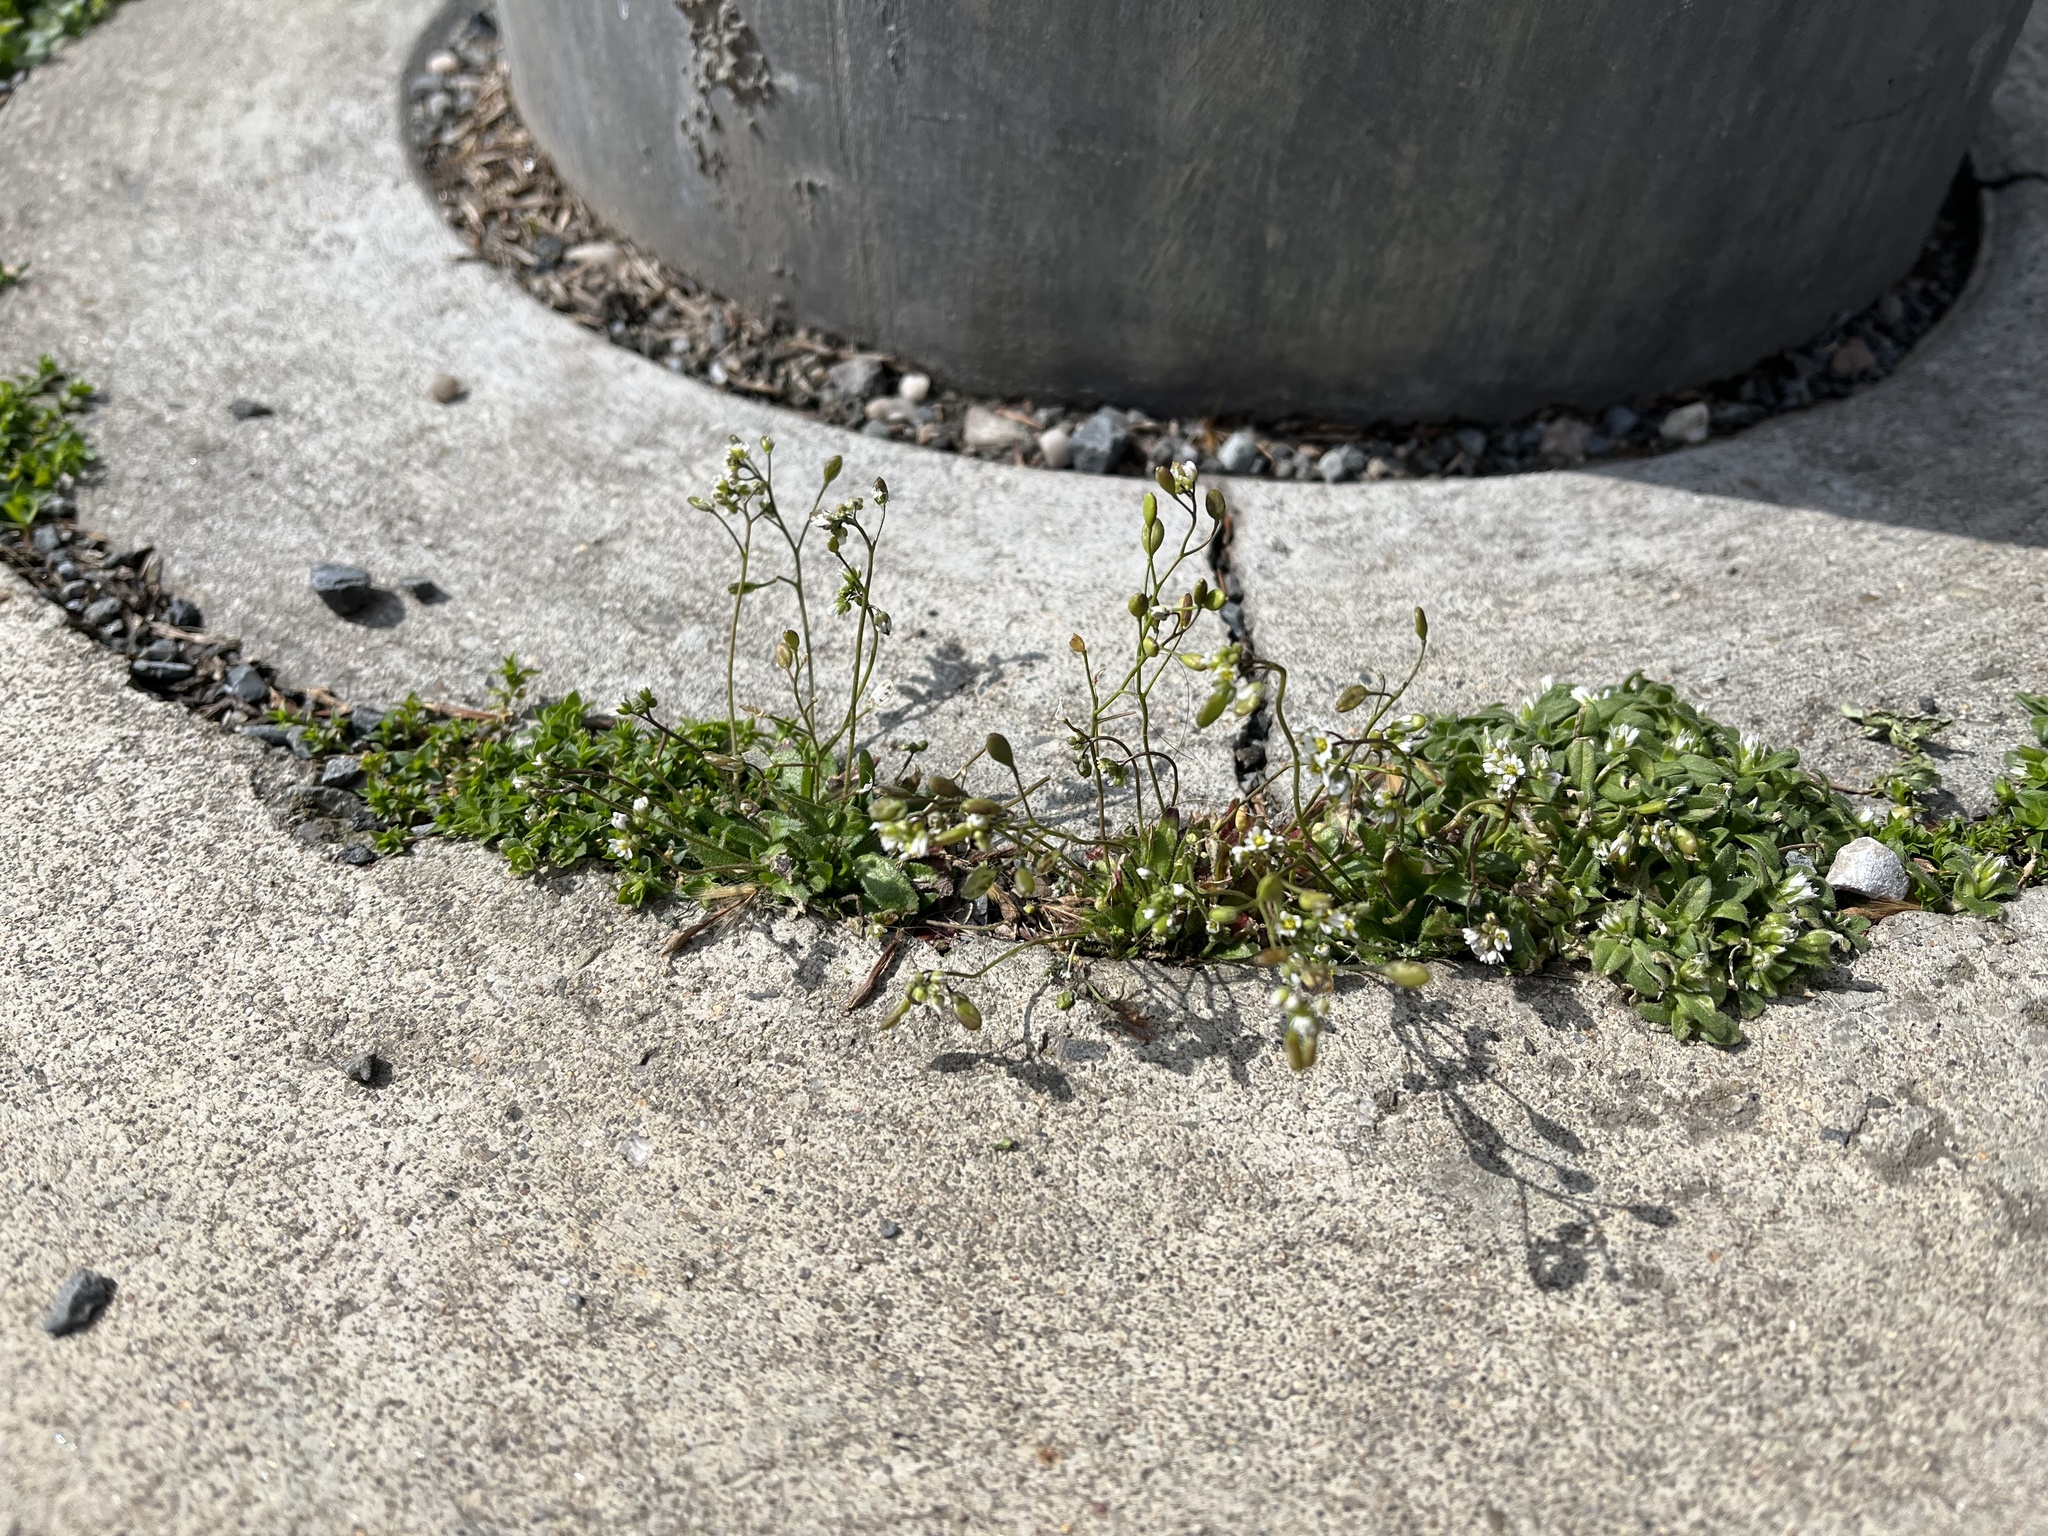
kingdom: Plantae
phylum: Tracheophyta
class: Magnoliopsida
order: Brassicales
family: Brassicaceae
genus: Draba
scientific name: Draba verna
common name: Spring draba
